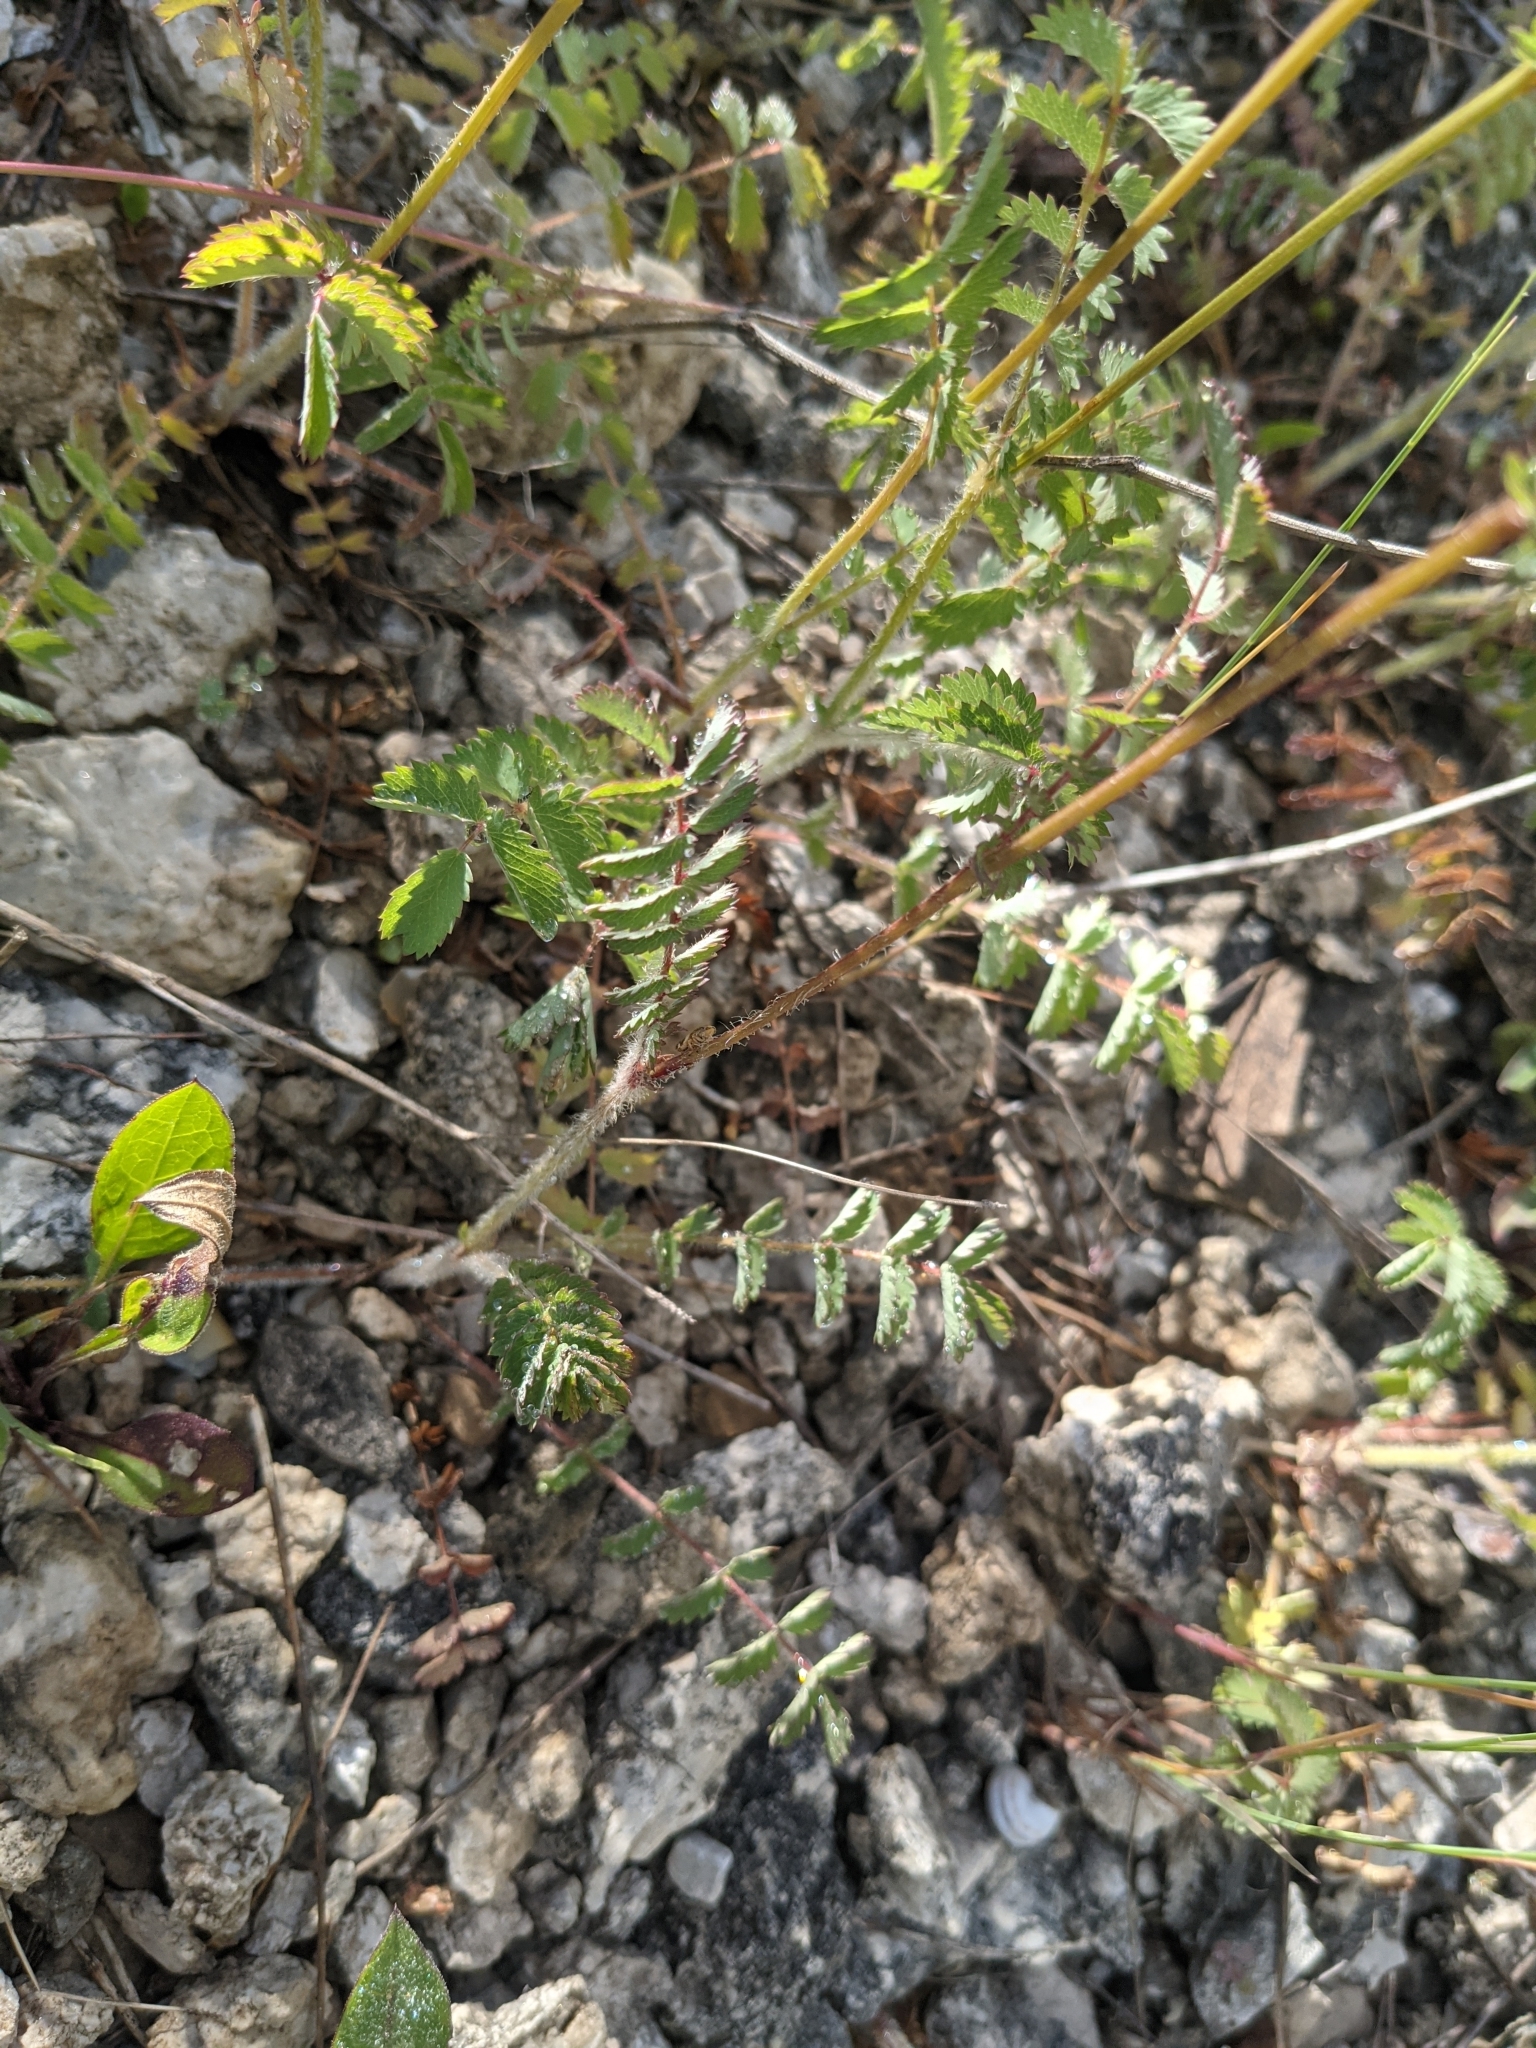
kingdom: Plantae
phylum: Tracheophyta
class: Magnoliopsida
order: Rosales
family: Rosaceae
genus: Poterium
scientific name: Poterium sanguisorba
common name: Salad burnet
